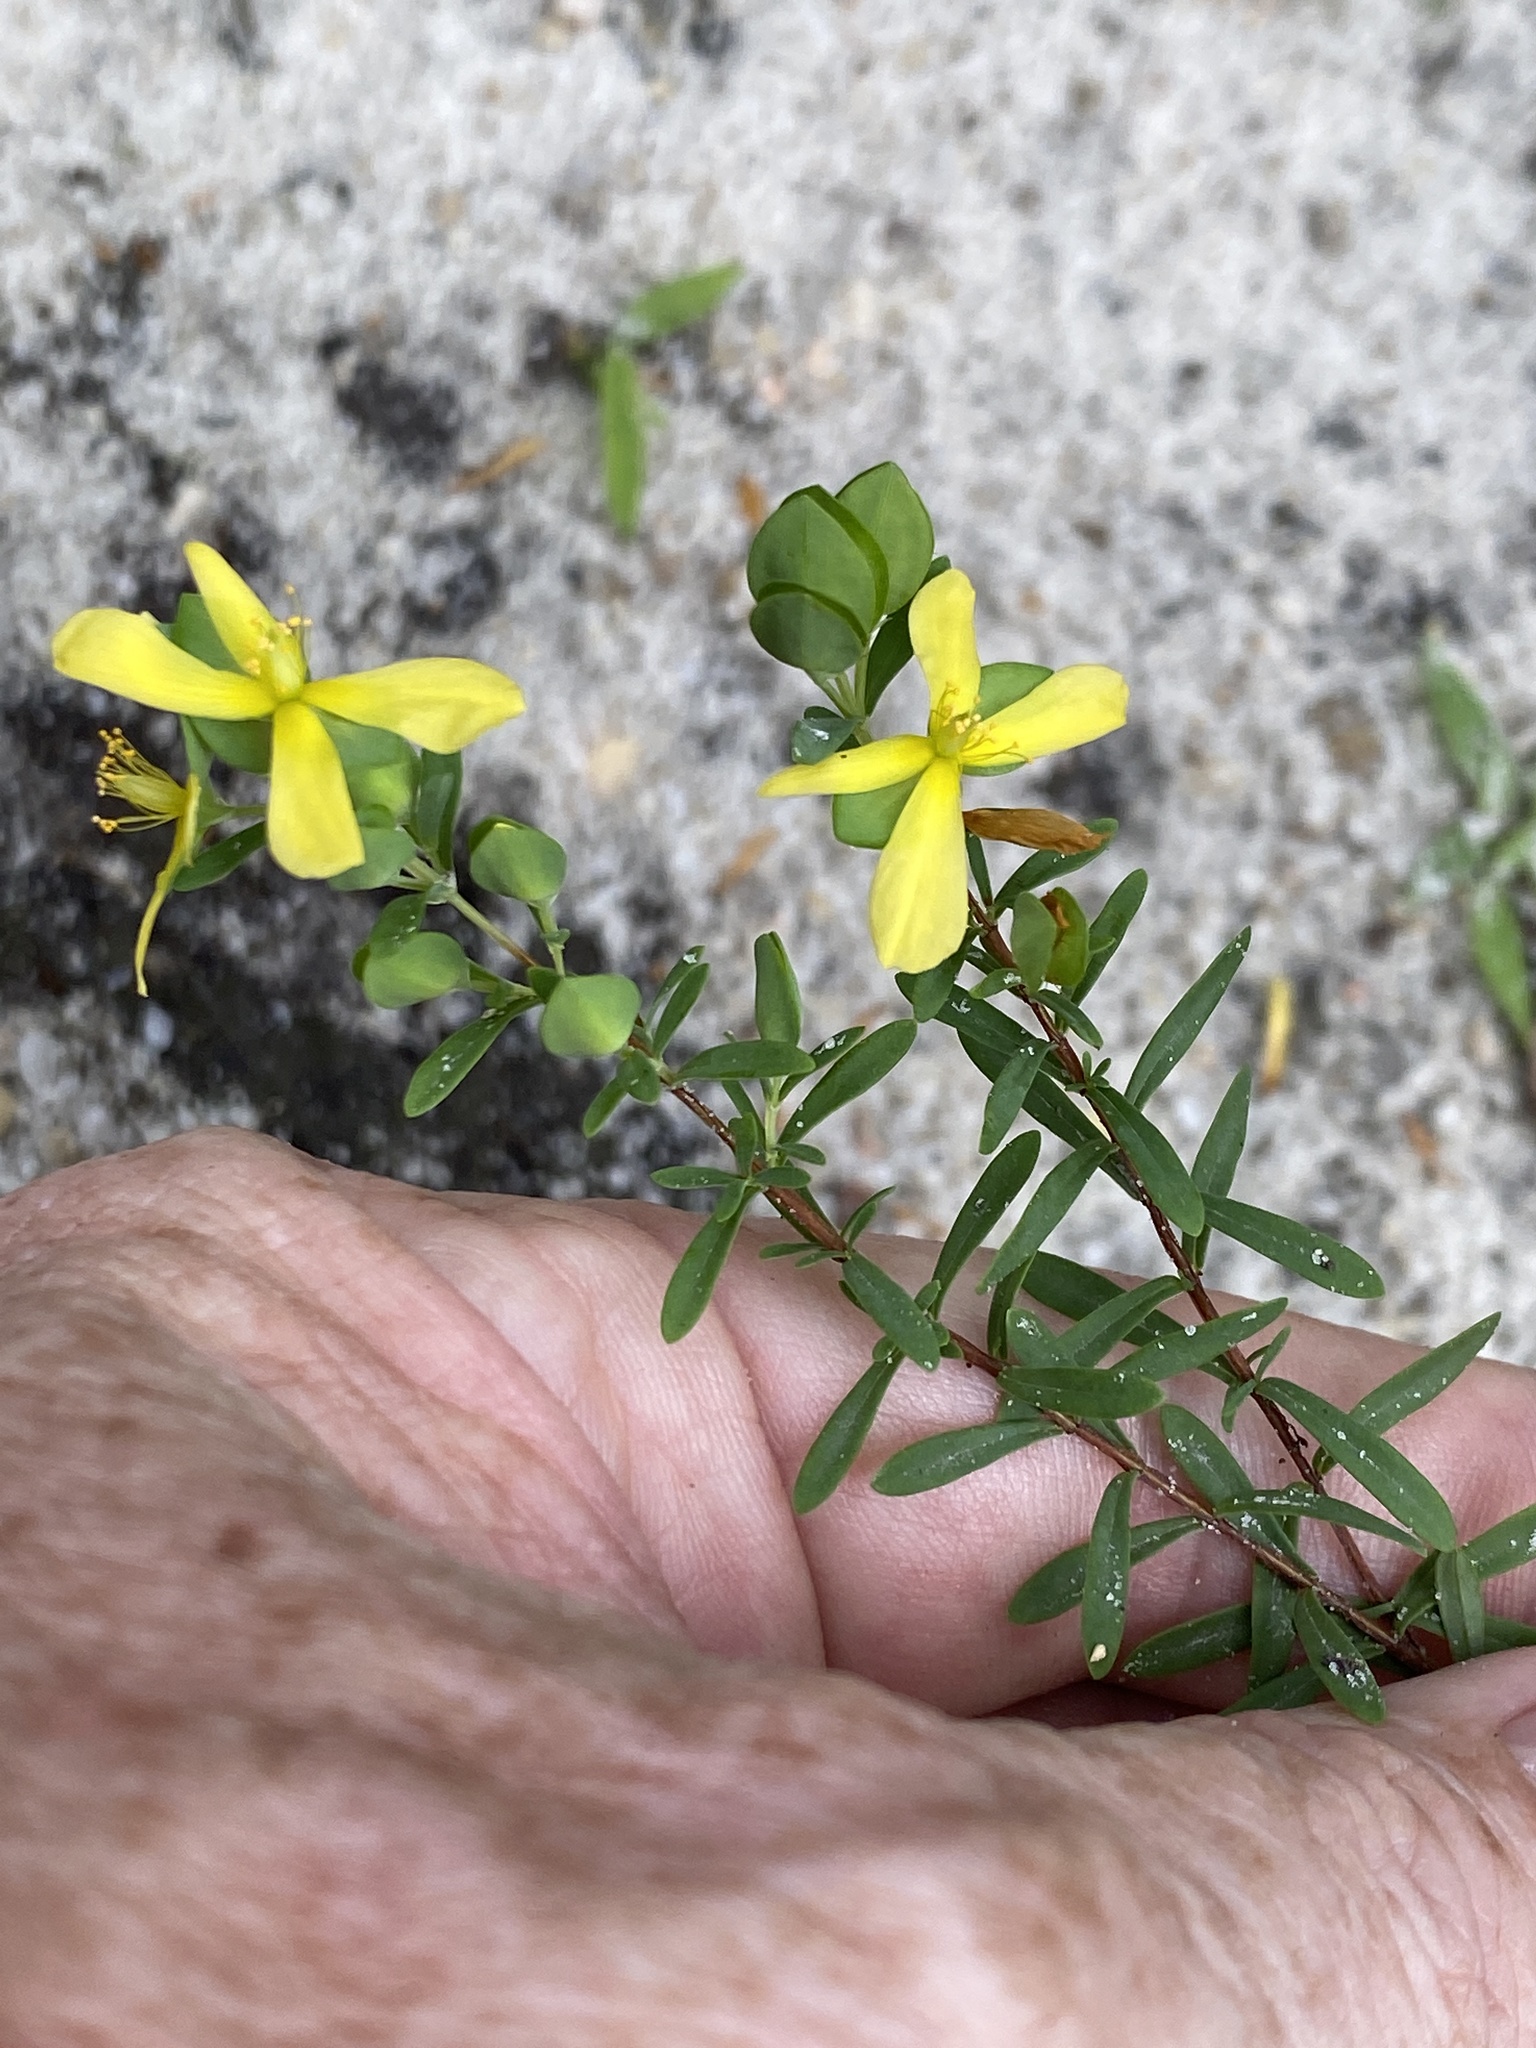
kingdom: Plantae
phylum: Tracheophyta
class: Magnoliopsida
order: Malpighiales
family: Hypericaceae
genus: Hypericum
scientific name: Hypericum hypericoides
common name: St. andrew's cross
